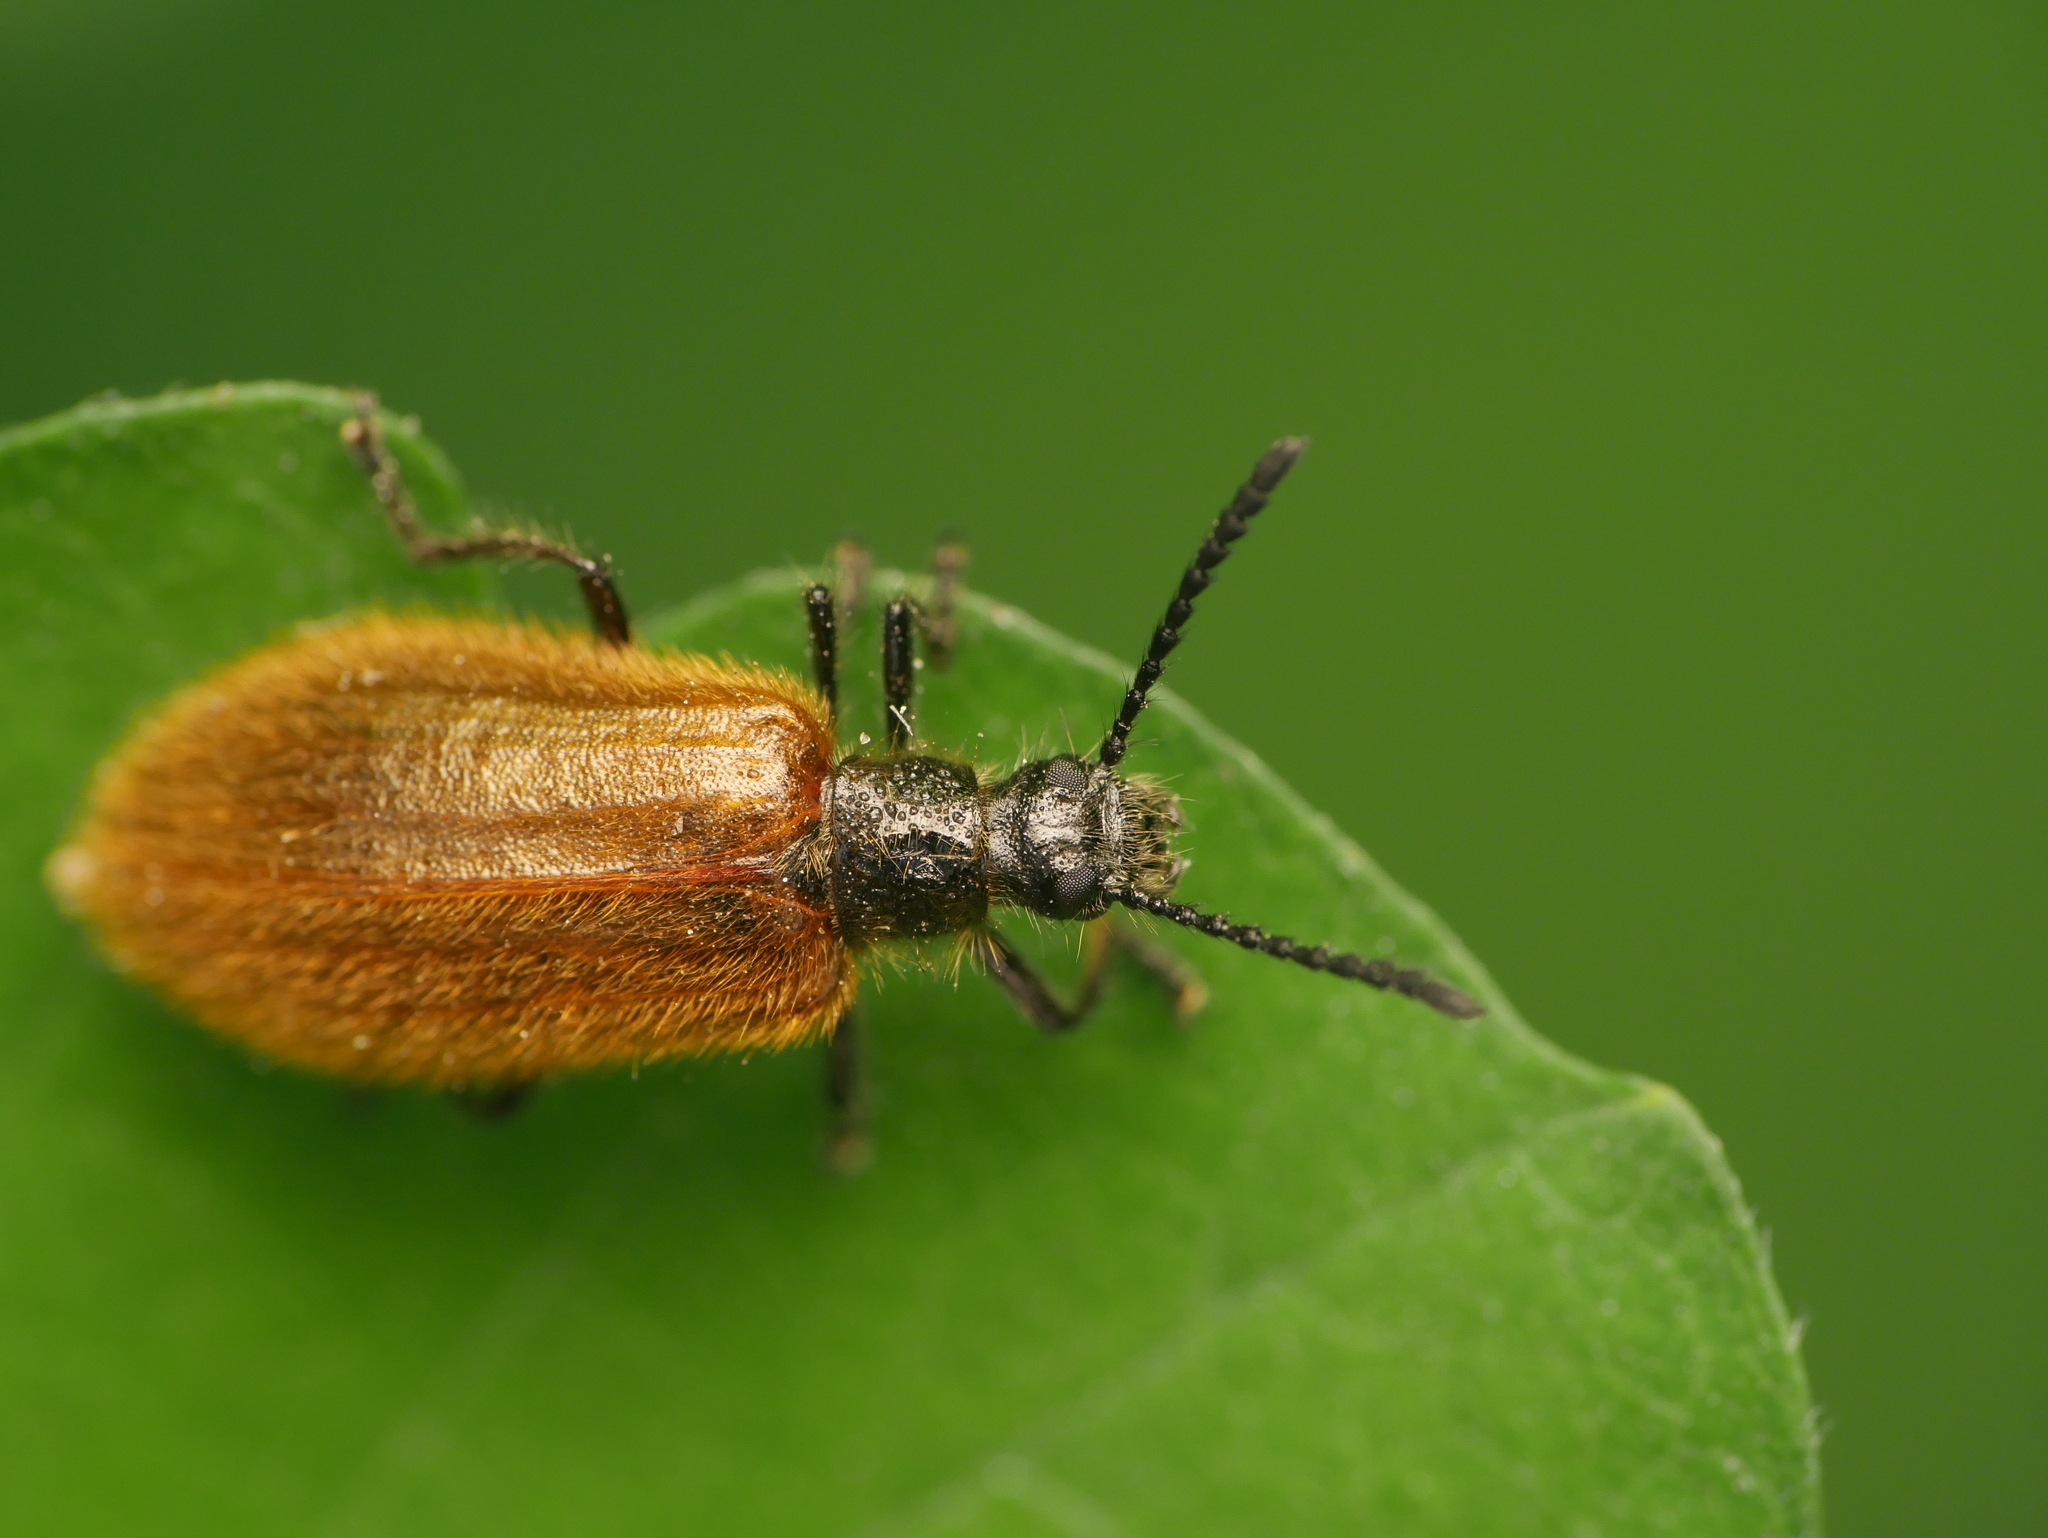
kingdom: Animalia
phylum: Arthropoda
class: Insecta
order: Coleoptera
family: Tenebrionidae
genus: Lagria
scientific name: Lagria atripes
